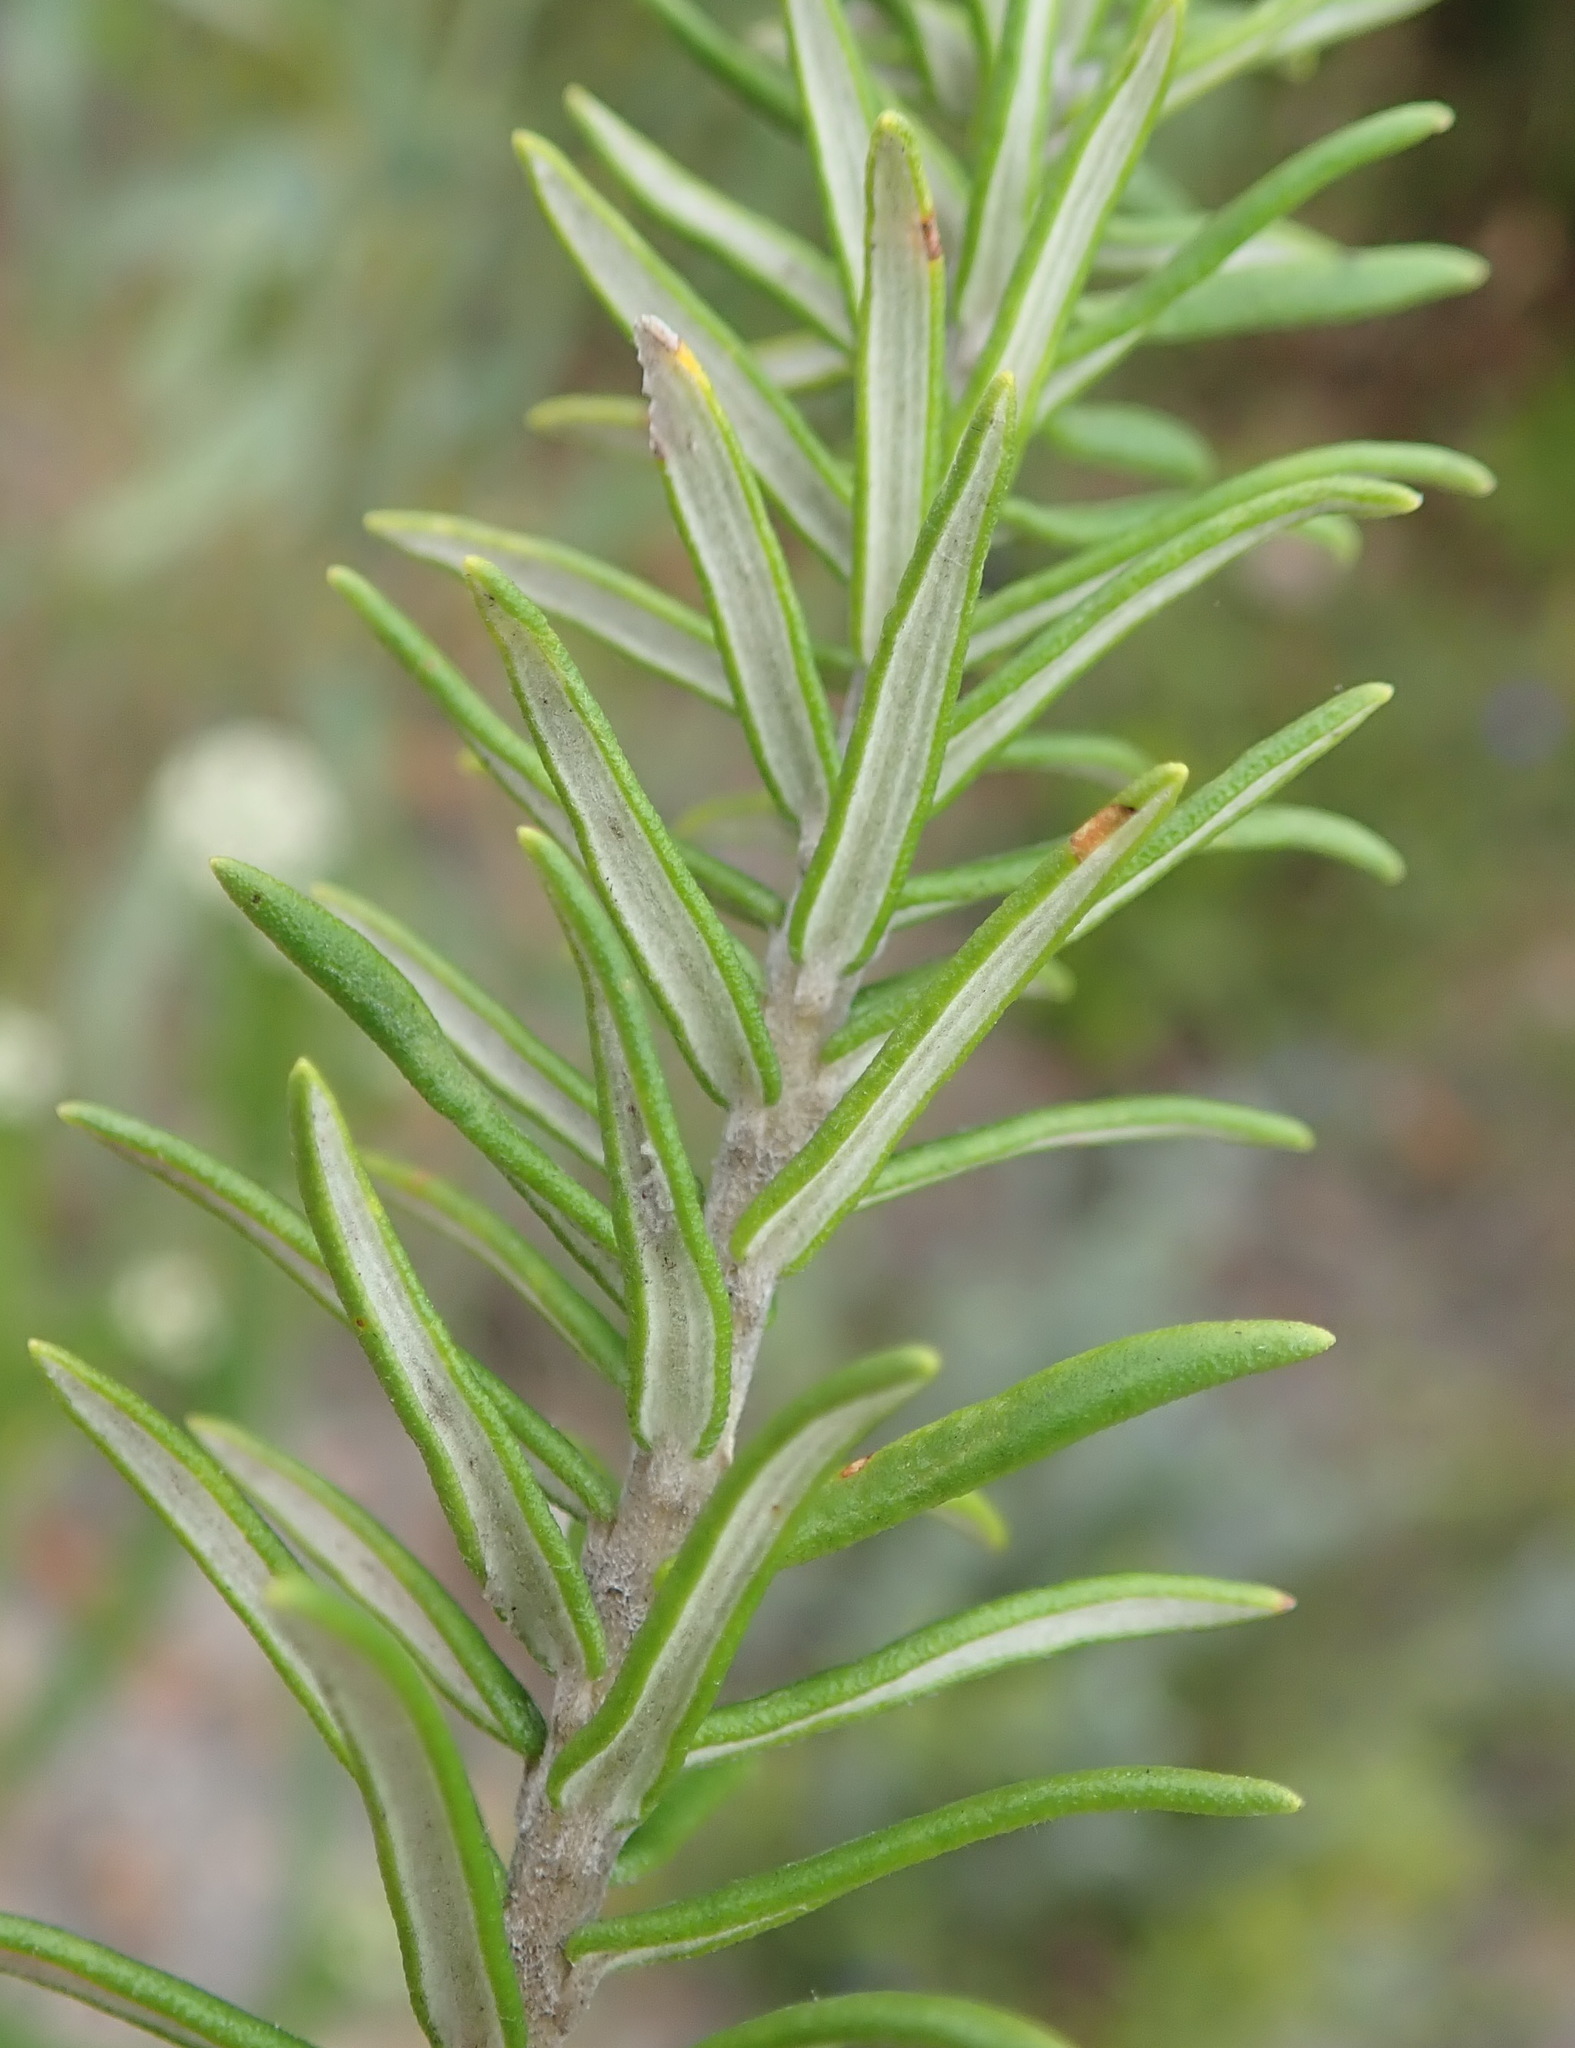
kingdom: Plantae
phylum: Tracheophyta
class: Magnoliopsida
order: Rosales
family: Rhamnaceae
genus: Phylica
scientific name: Phylica axillaris
